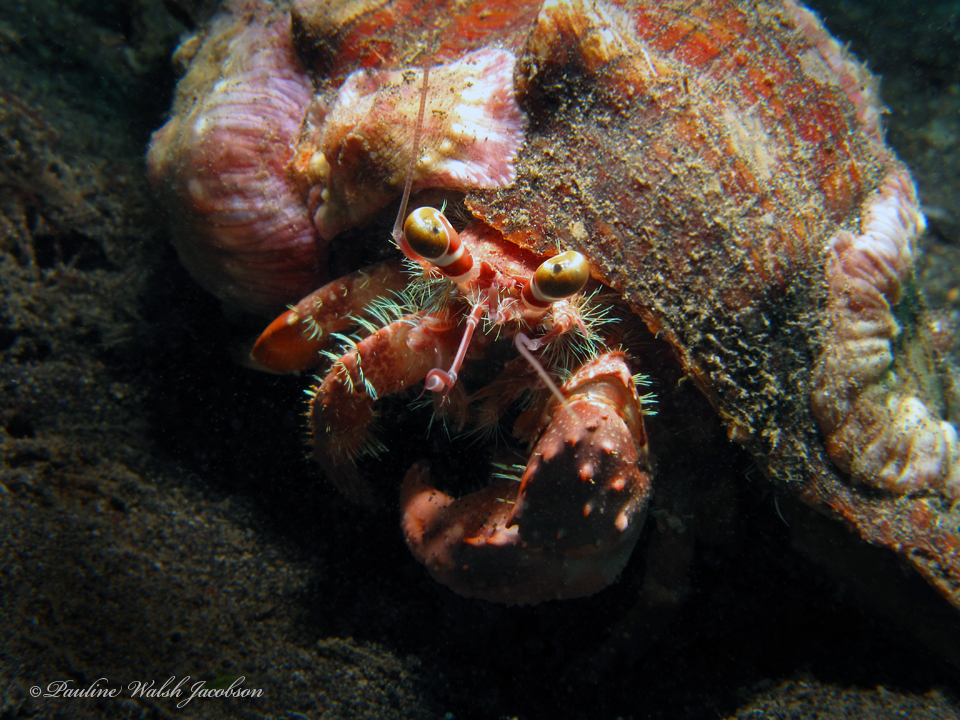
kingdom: Animalia
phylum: Arthropoda
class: Malacostraca
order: Decapoda
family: Diogenidae
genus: Dardanus
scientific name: Dardanus pedunculatus
